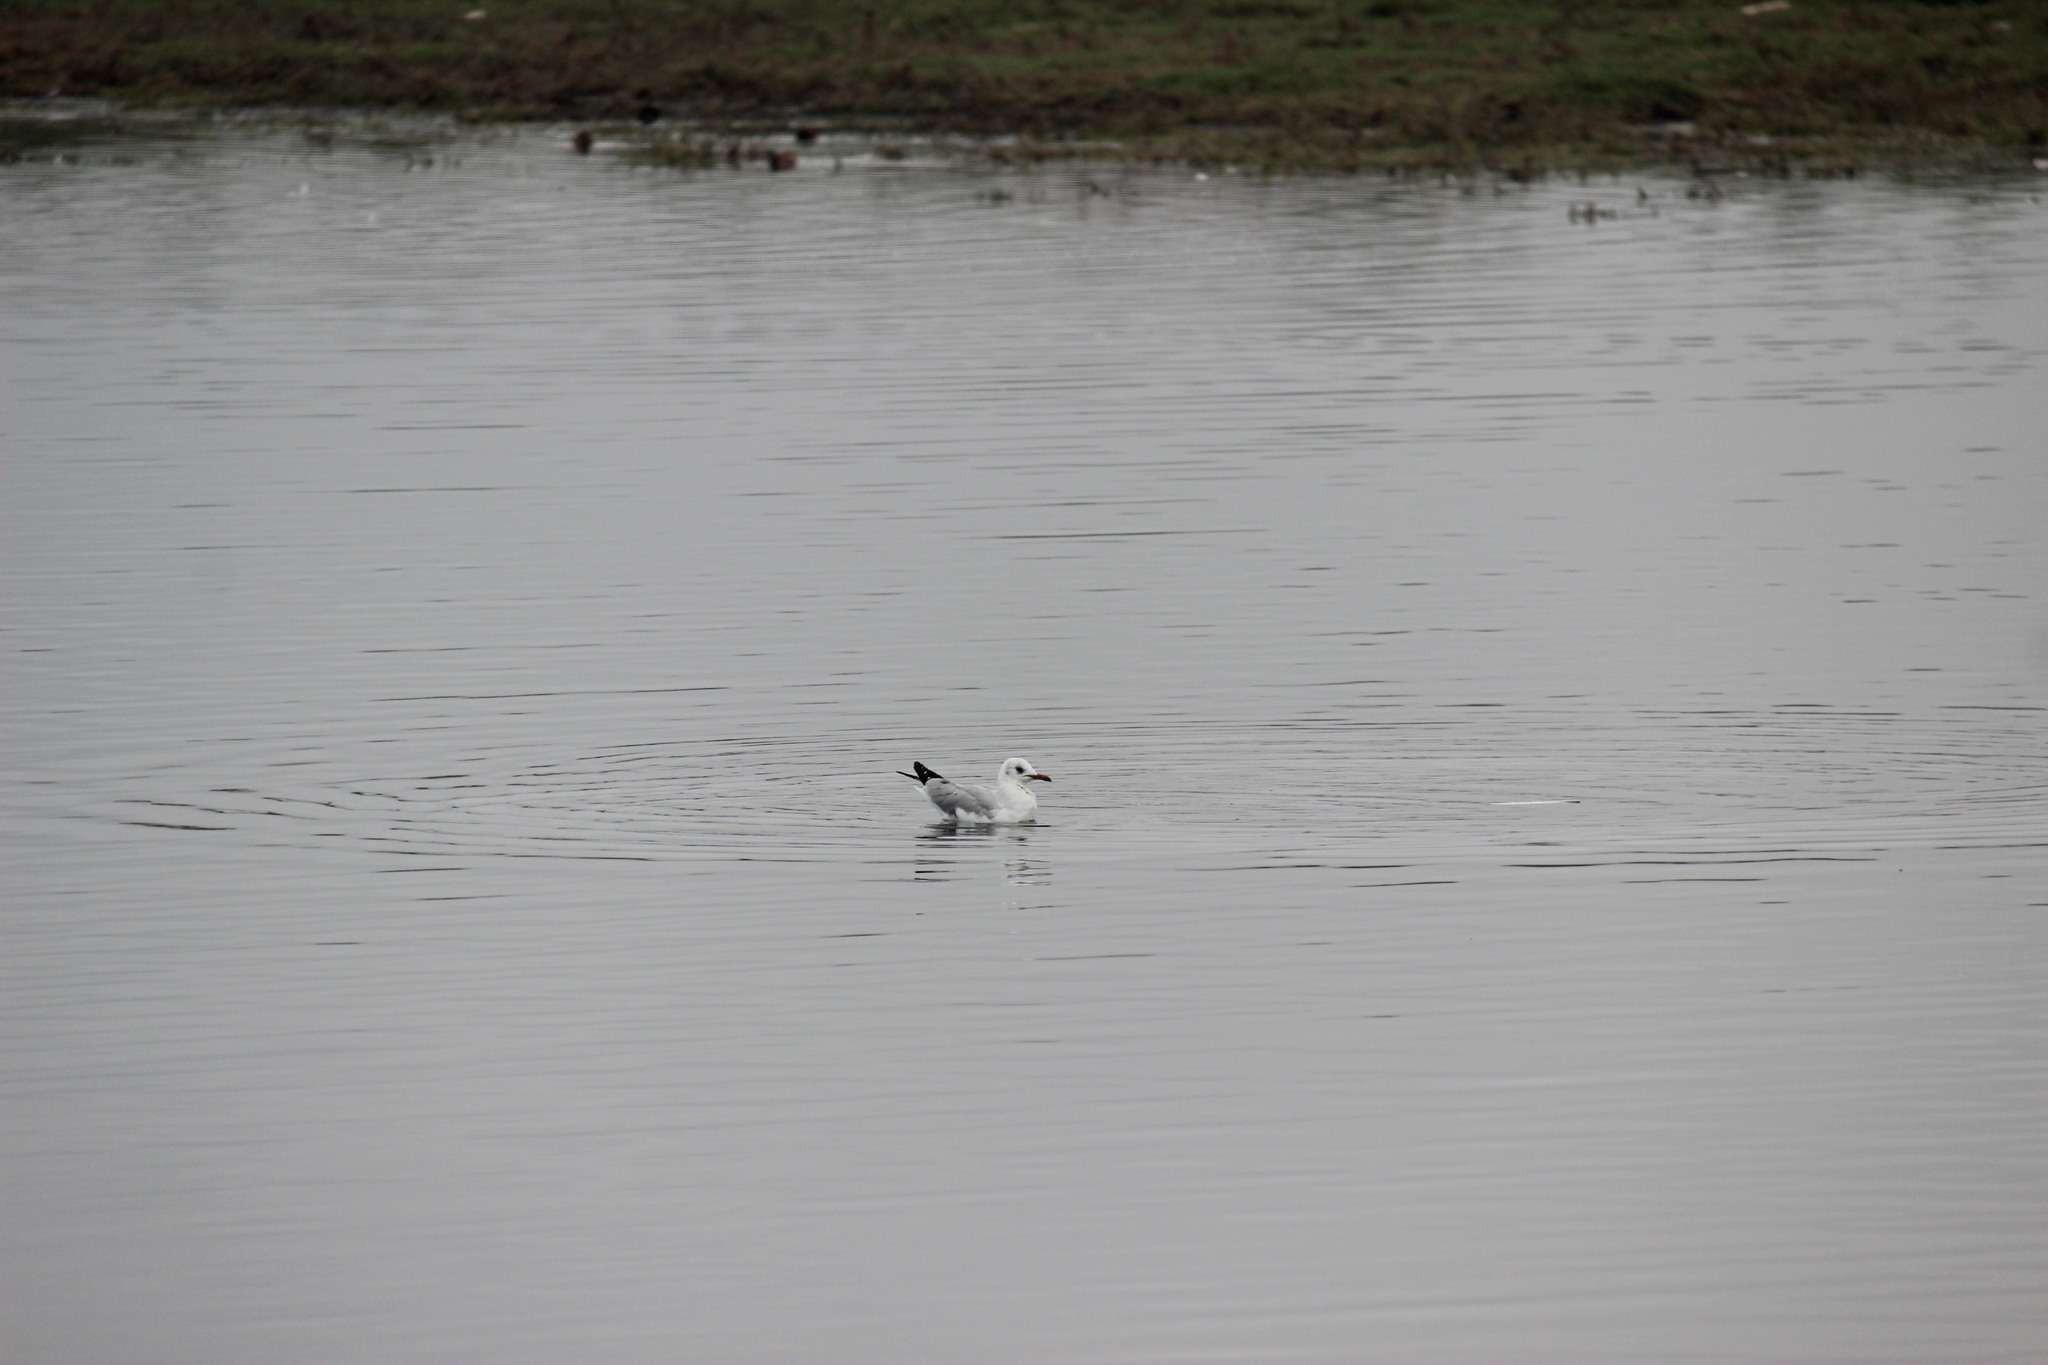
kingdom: Animalia
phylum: Chordata
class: Aves
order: Charadriiformes
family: Laridae
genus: Chroicocephalus
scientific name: Chroicocephalus cirrocephalus
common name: Grey-headed gull
